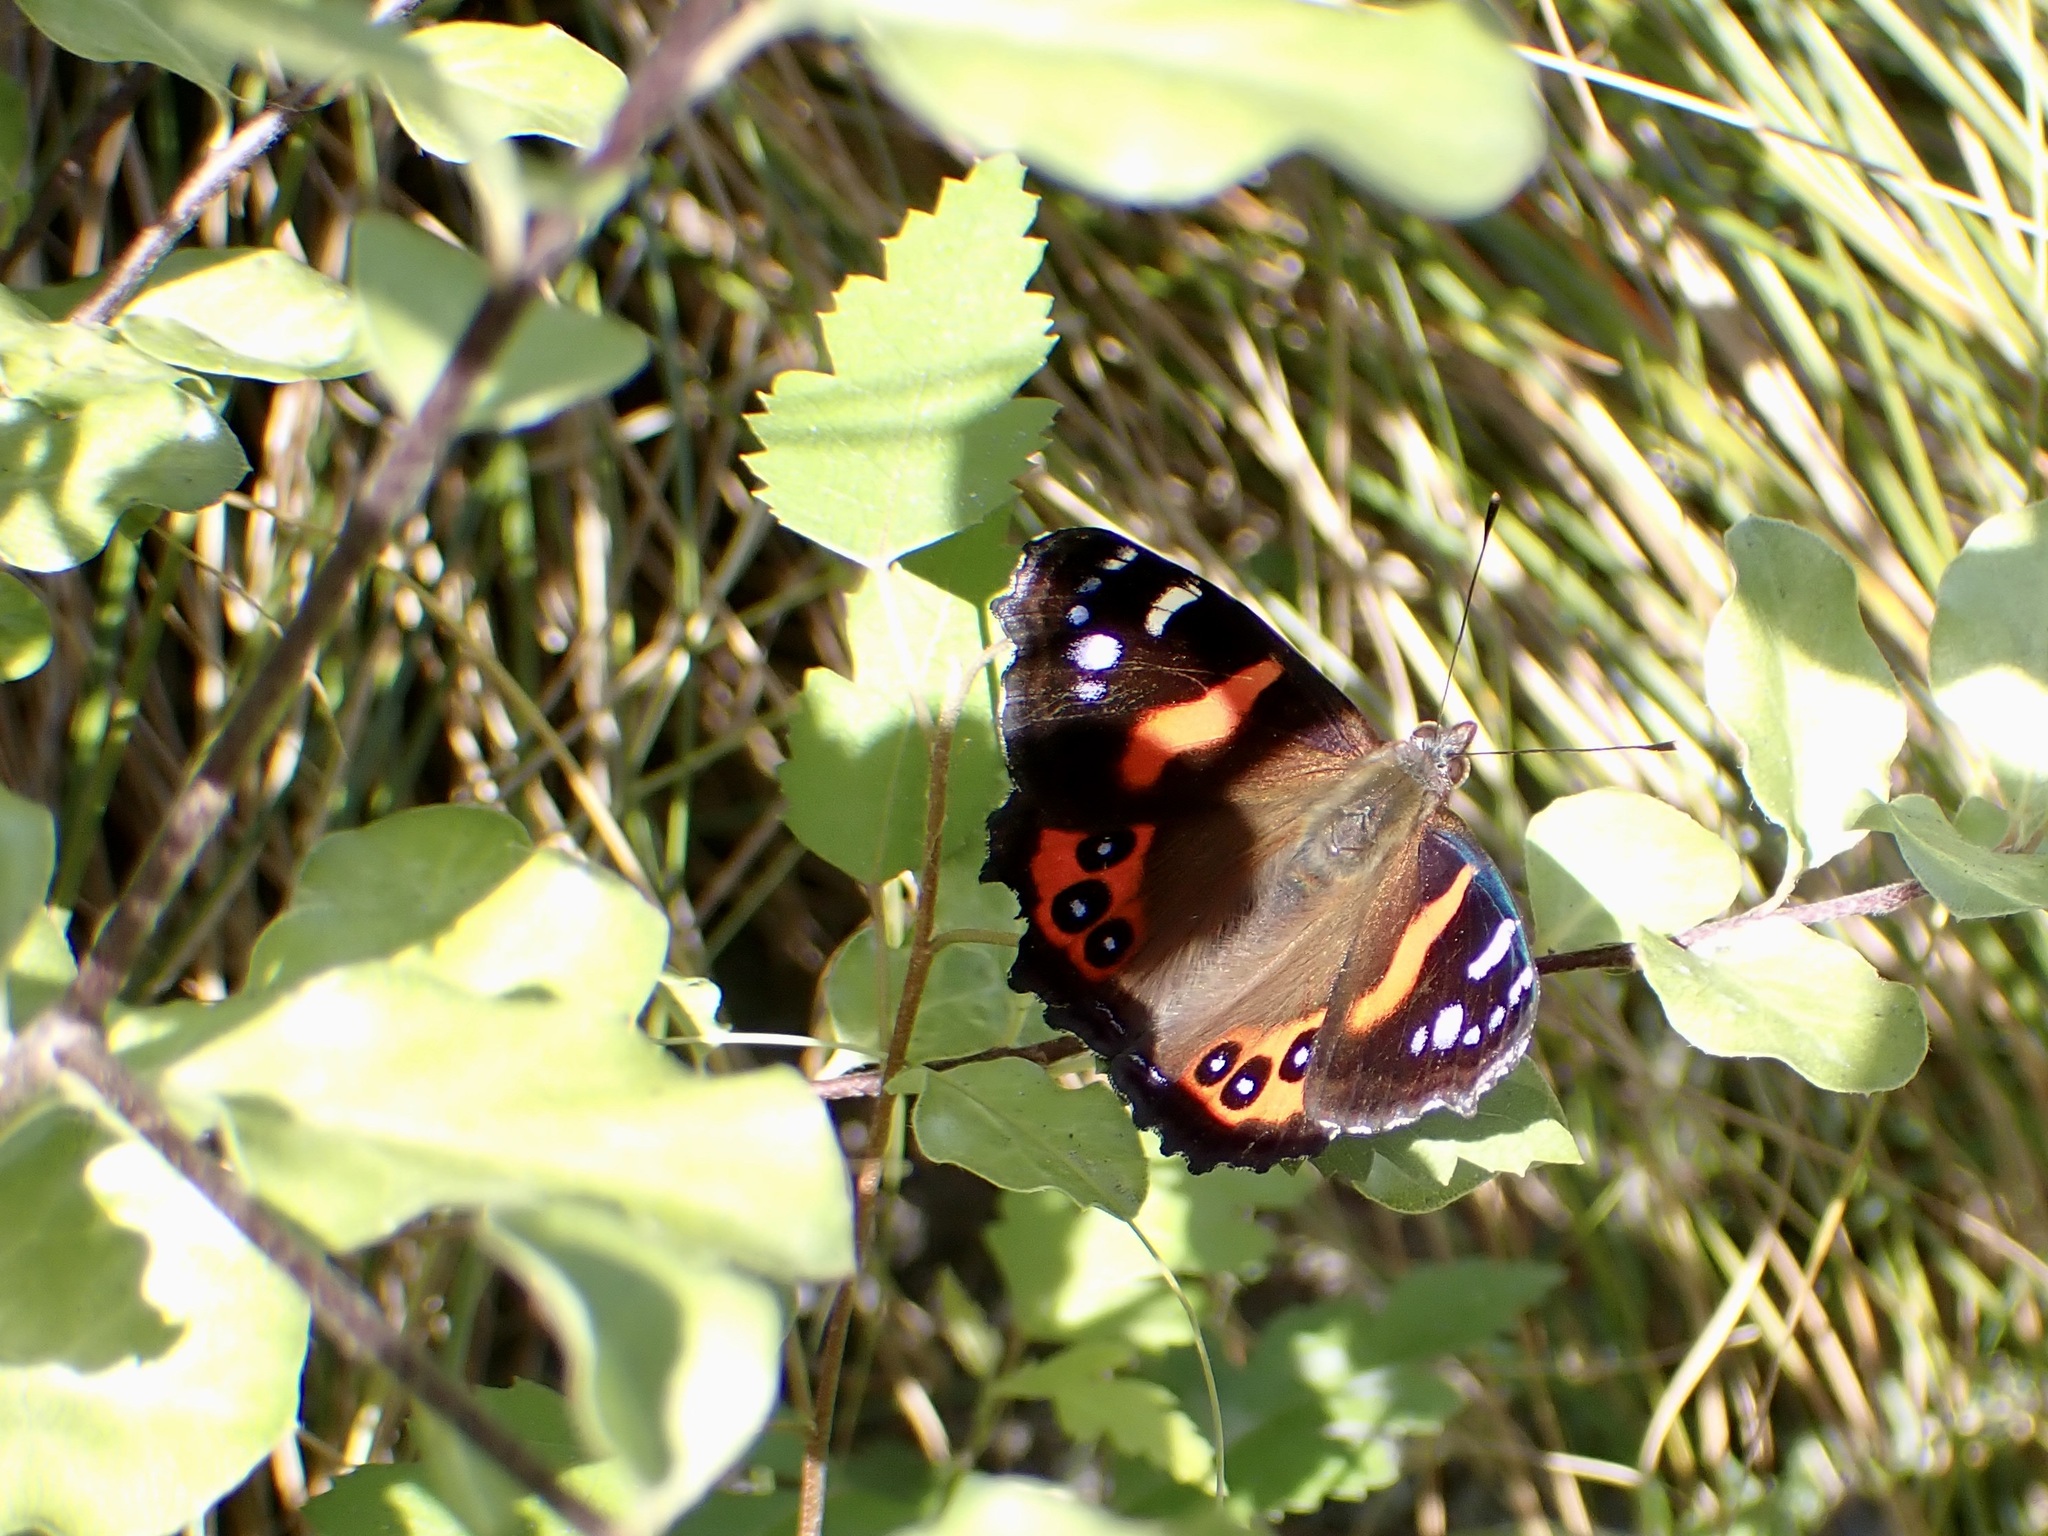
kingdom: Animalia
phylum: Arthropoda
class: Insecta
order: Lepidoptera
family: Nymphalidae
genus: Vanessa
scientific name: Vanessa gonerilla
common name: New zealand red admiral
